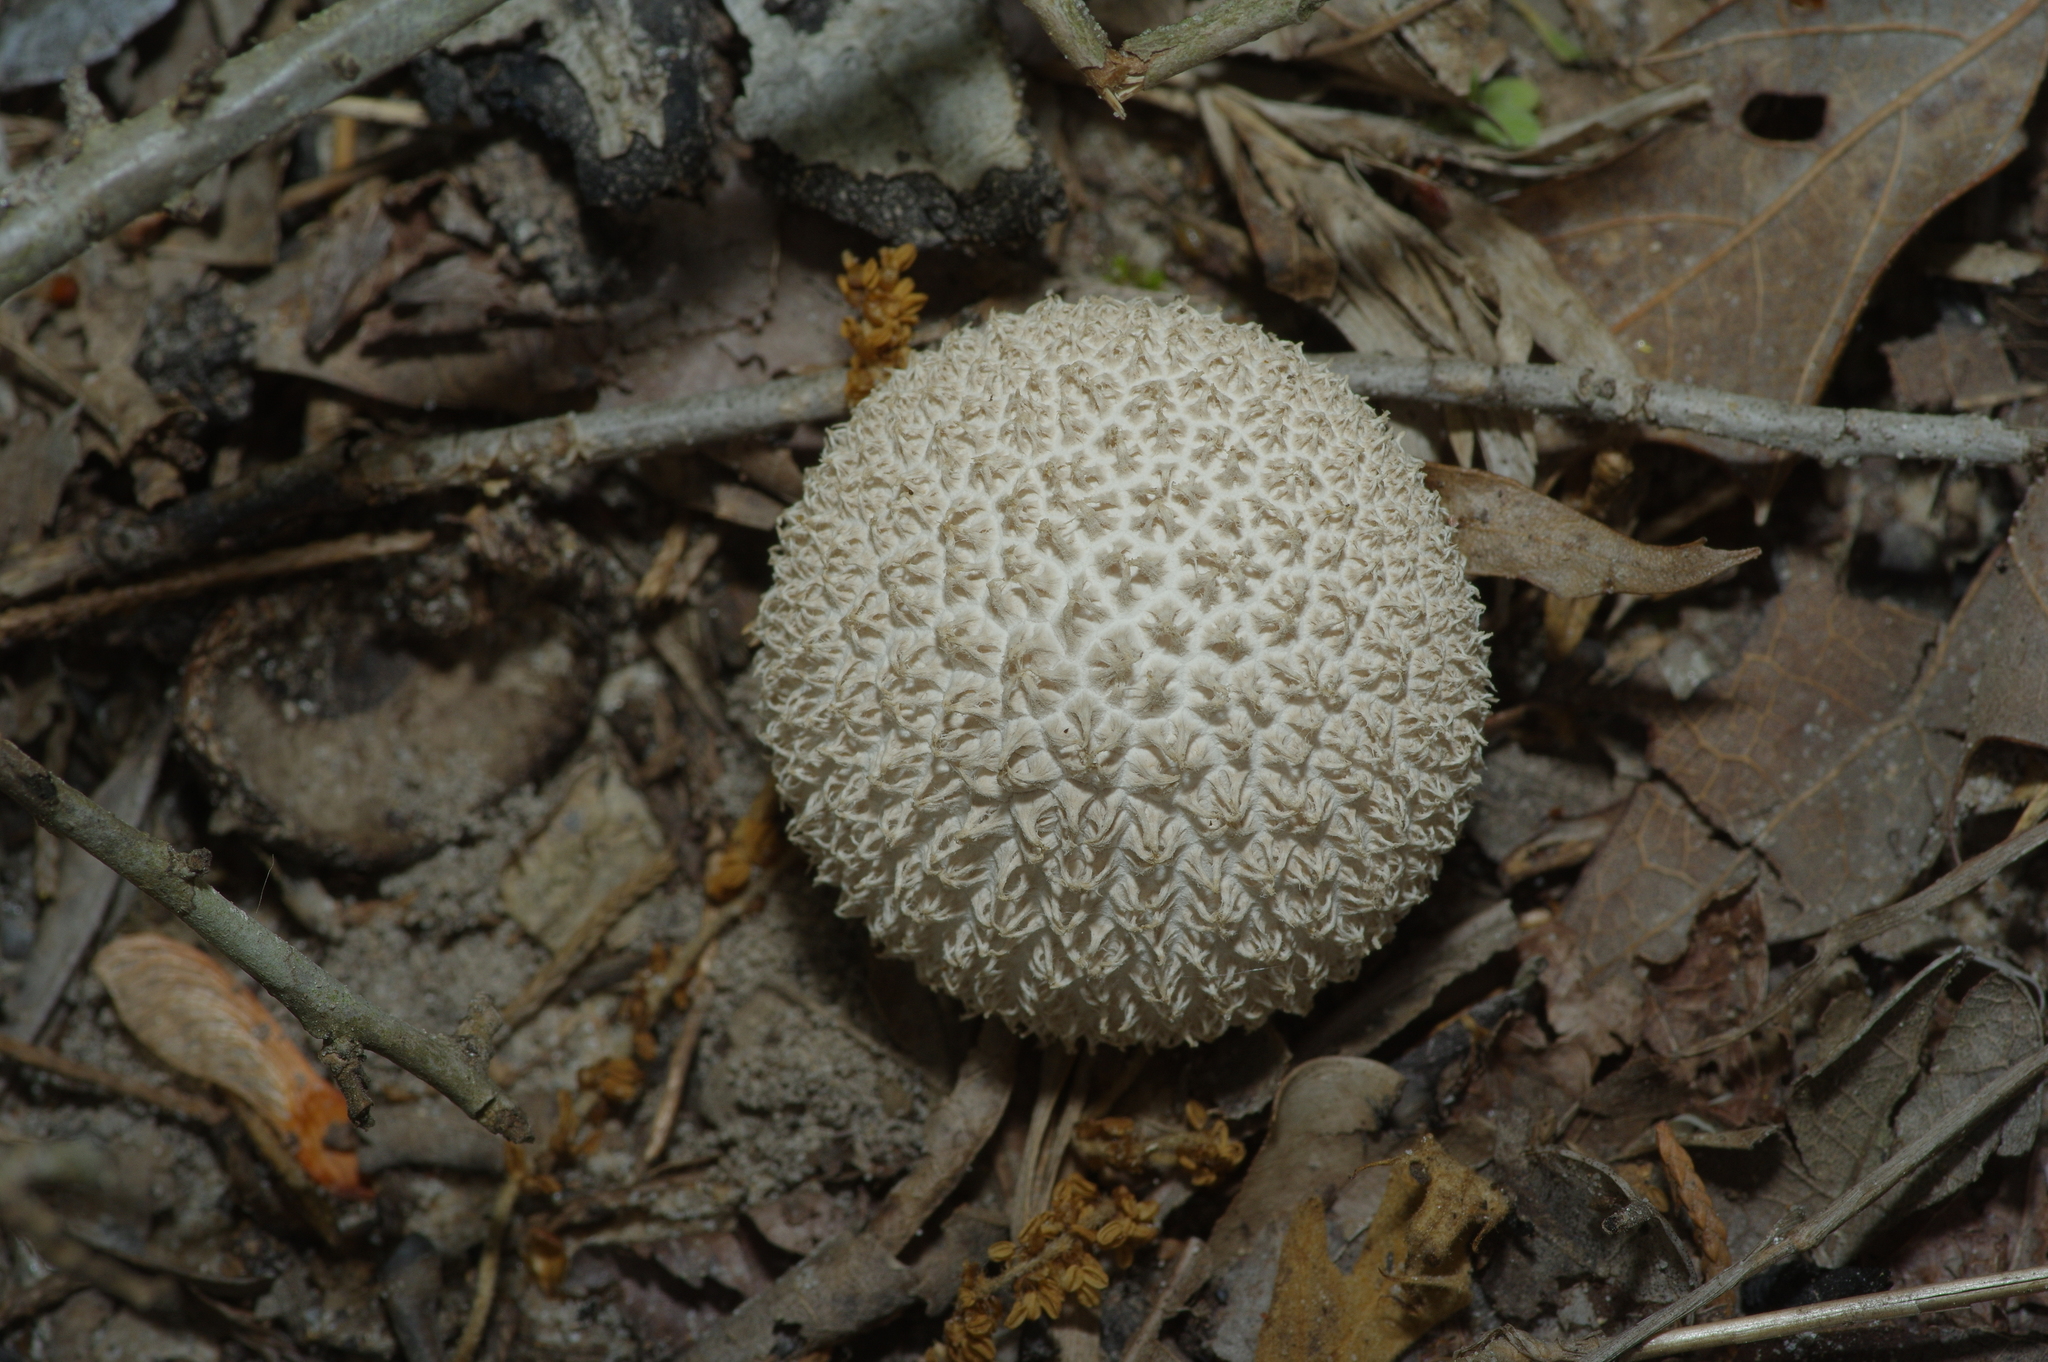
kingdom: Fungi
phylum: Basidiomycota
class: Agaricomycetes
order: Agaricales
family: Agaricaceae
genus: Lycoperdon
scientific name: Lycoperdon marginatum
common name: Peeling puffball
